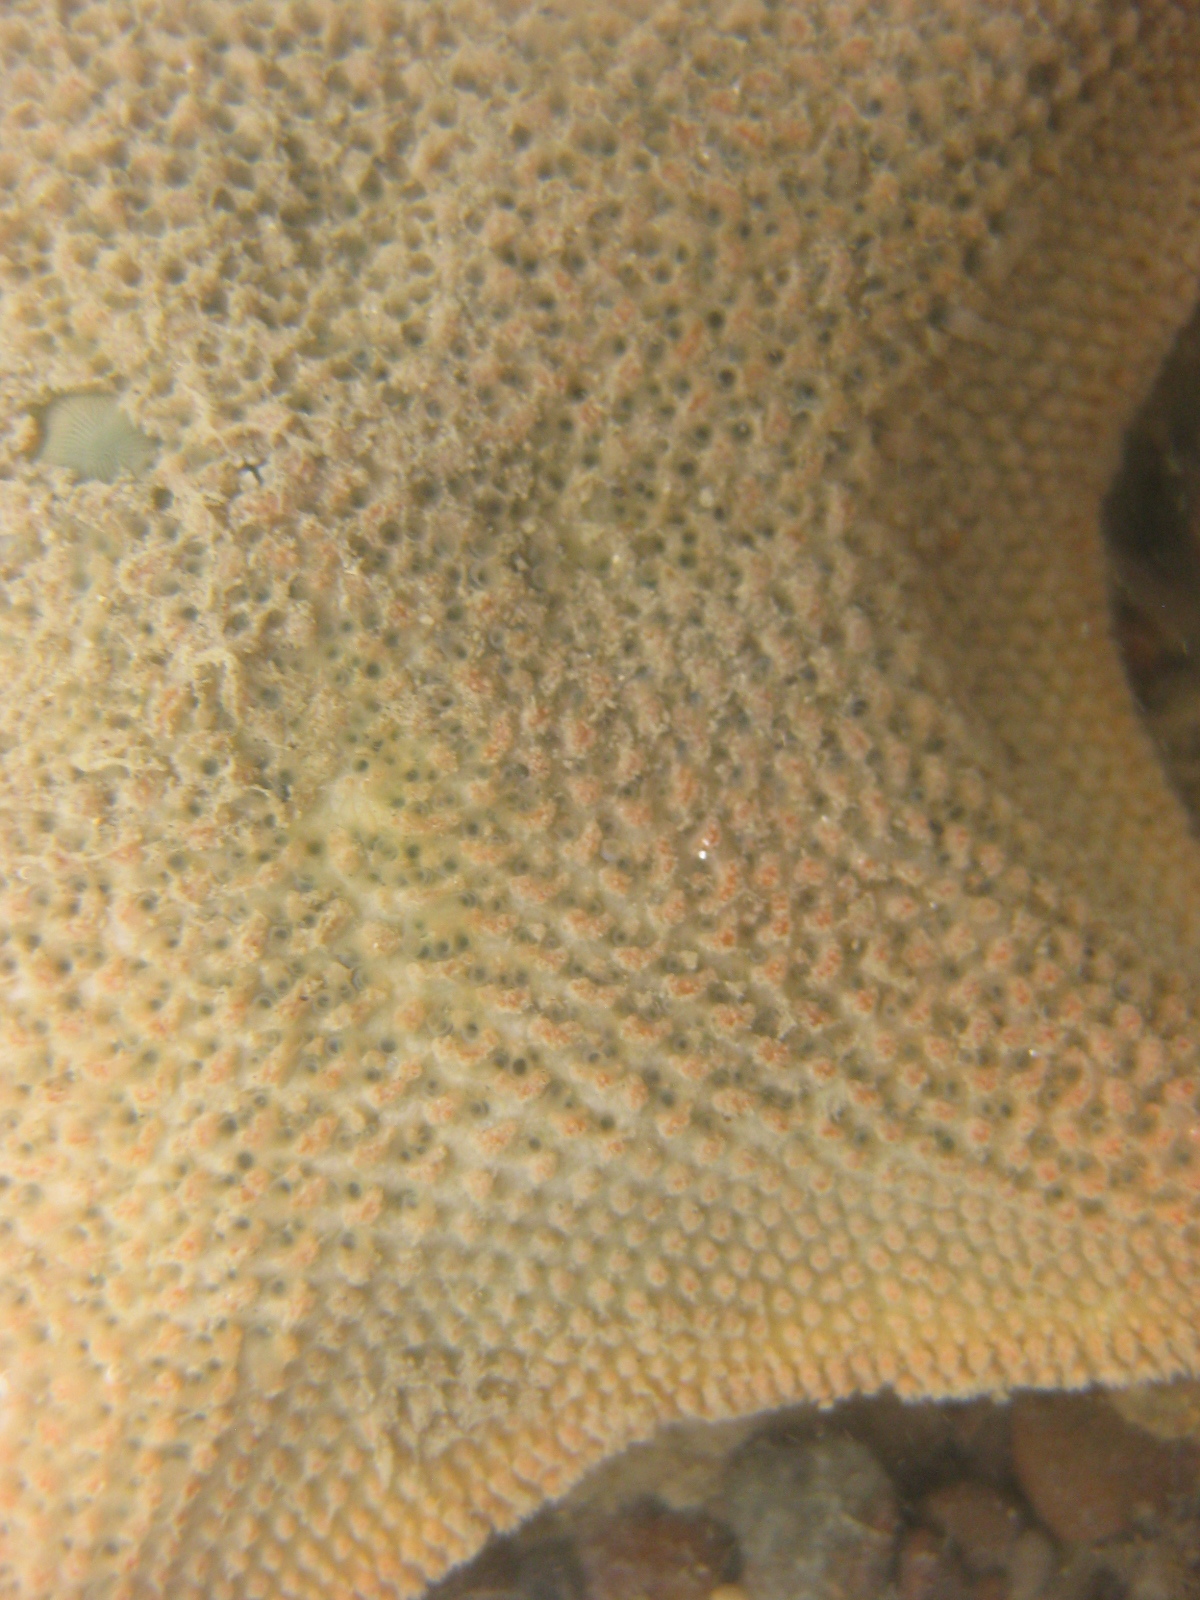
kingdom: Animalia
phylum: Echinodermata
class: Asteroidea
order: Valvatida
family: Asterinidae
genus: Patiriella
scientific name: Patiriella regularis
